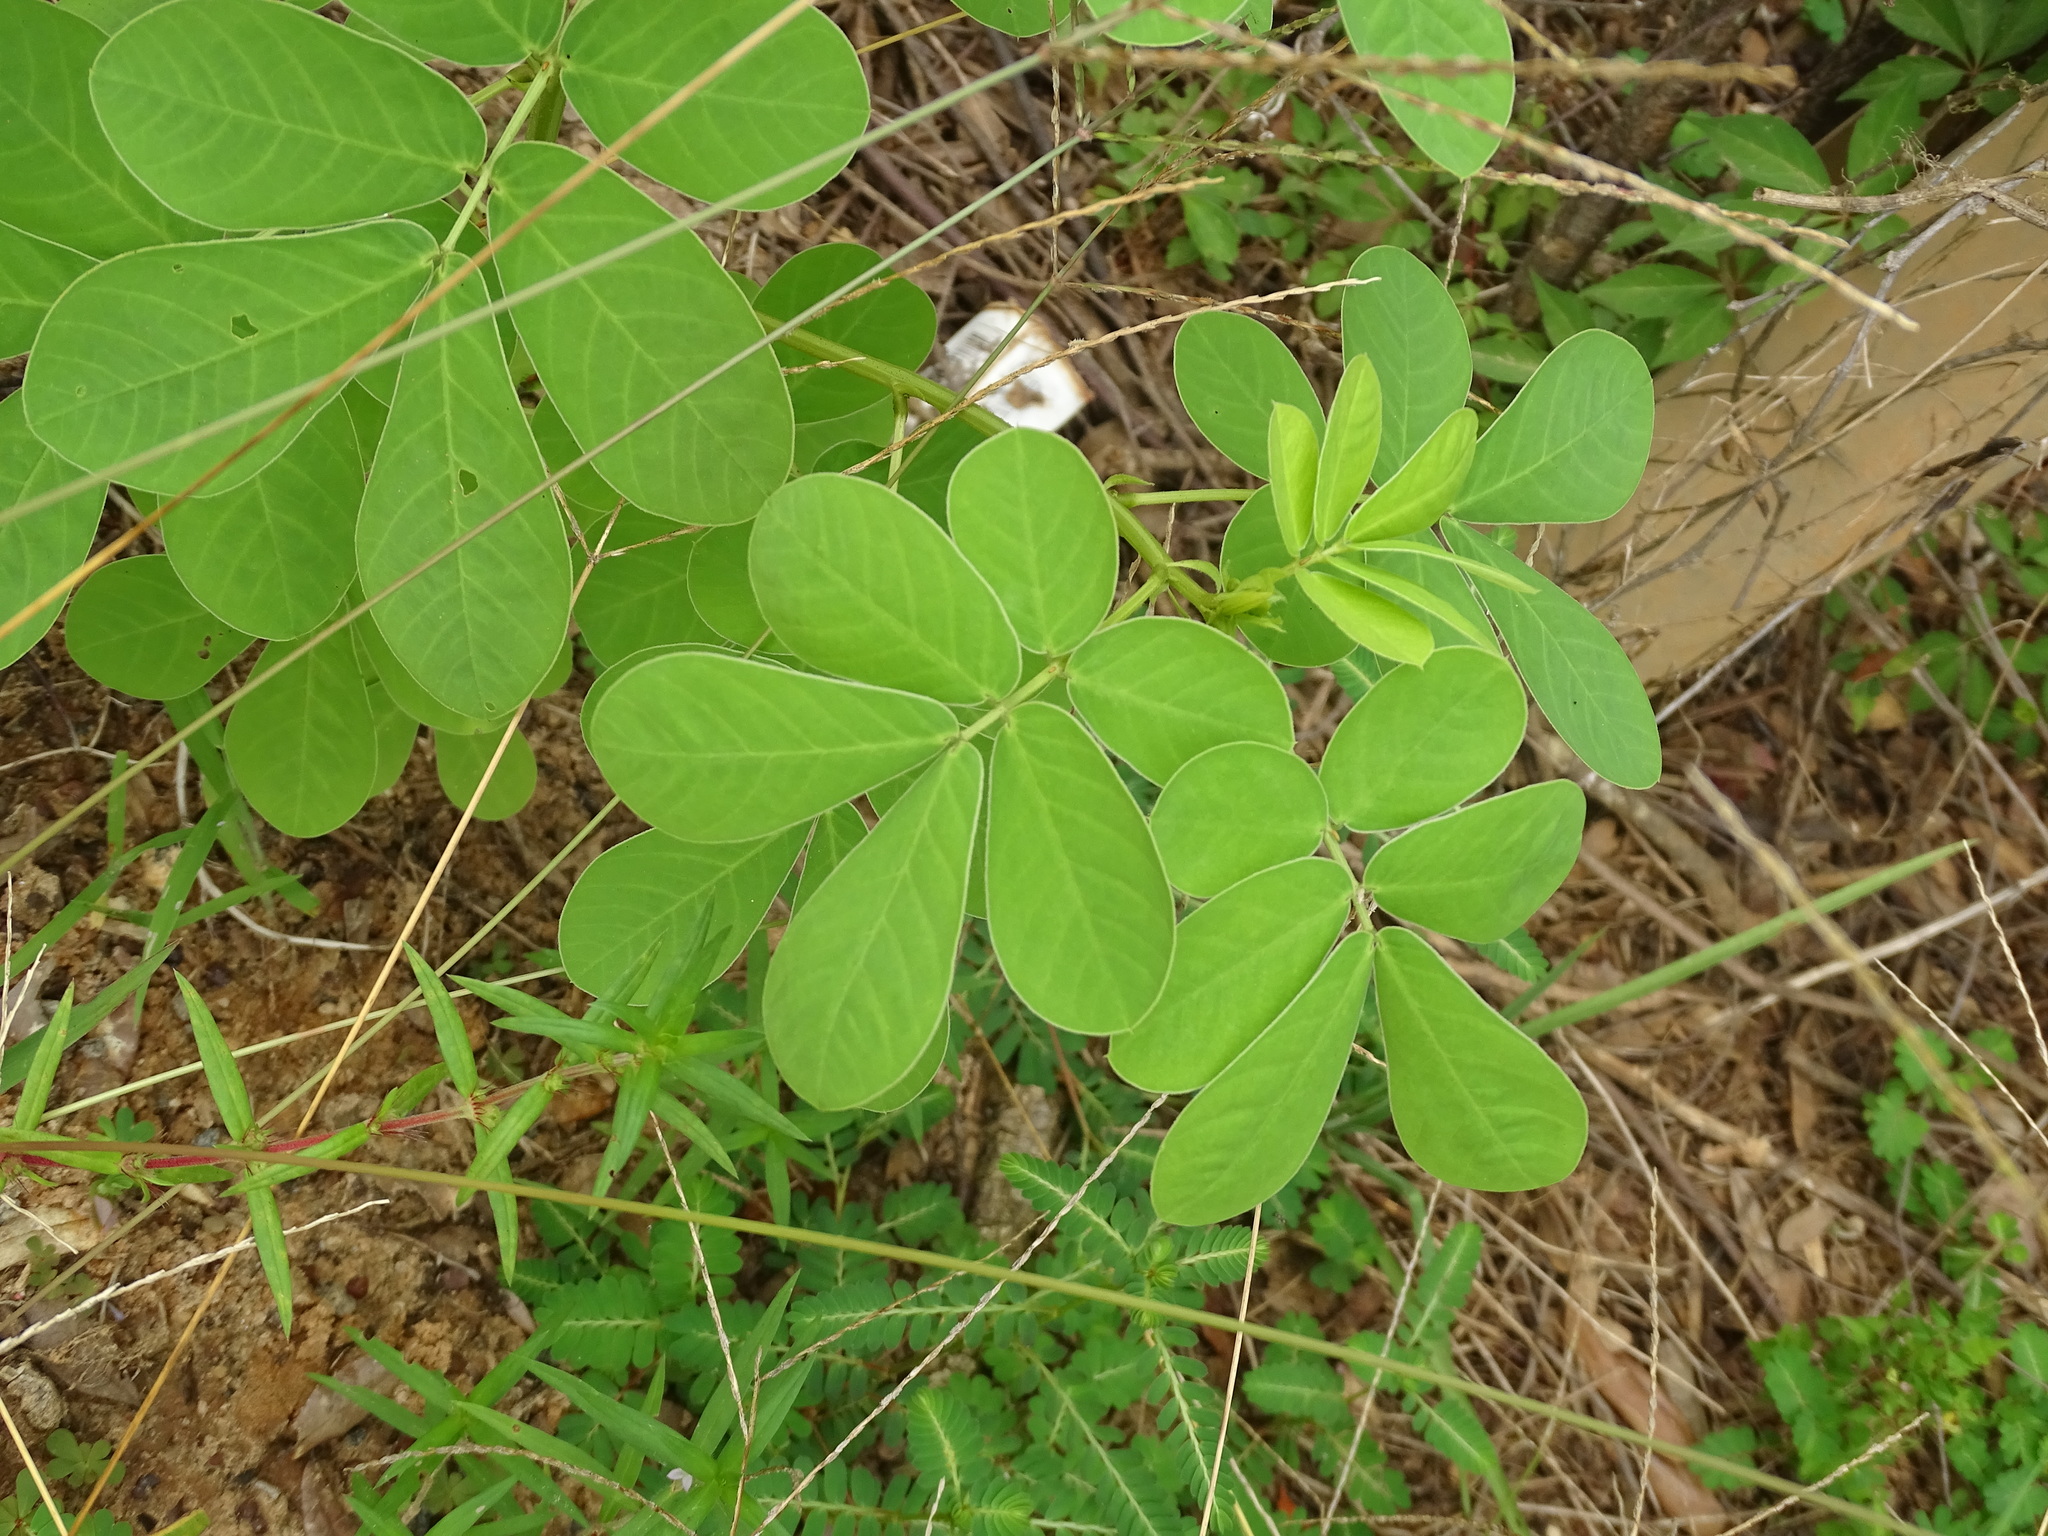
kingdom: Plantae
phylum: Tracheophyta
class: Magnoliopsida
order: Fabales
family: Fabaceae
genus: Senna
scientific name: Senna obtusifolia
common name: Java-bean
